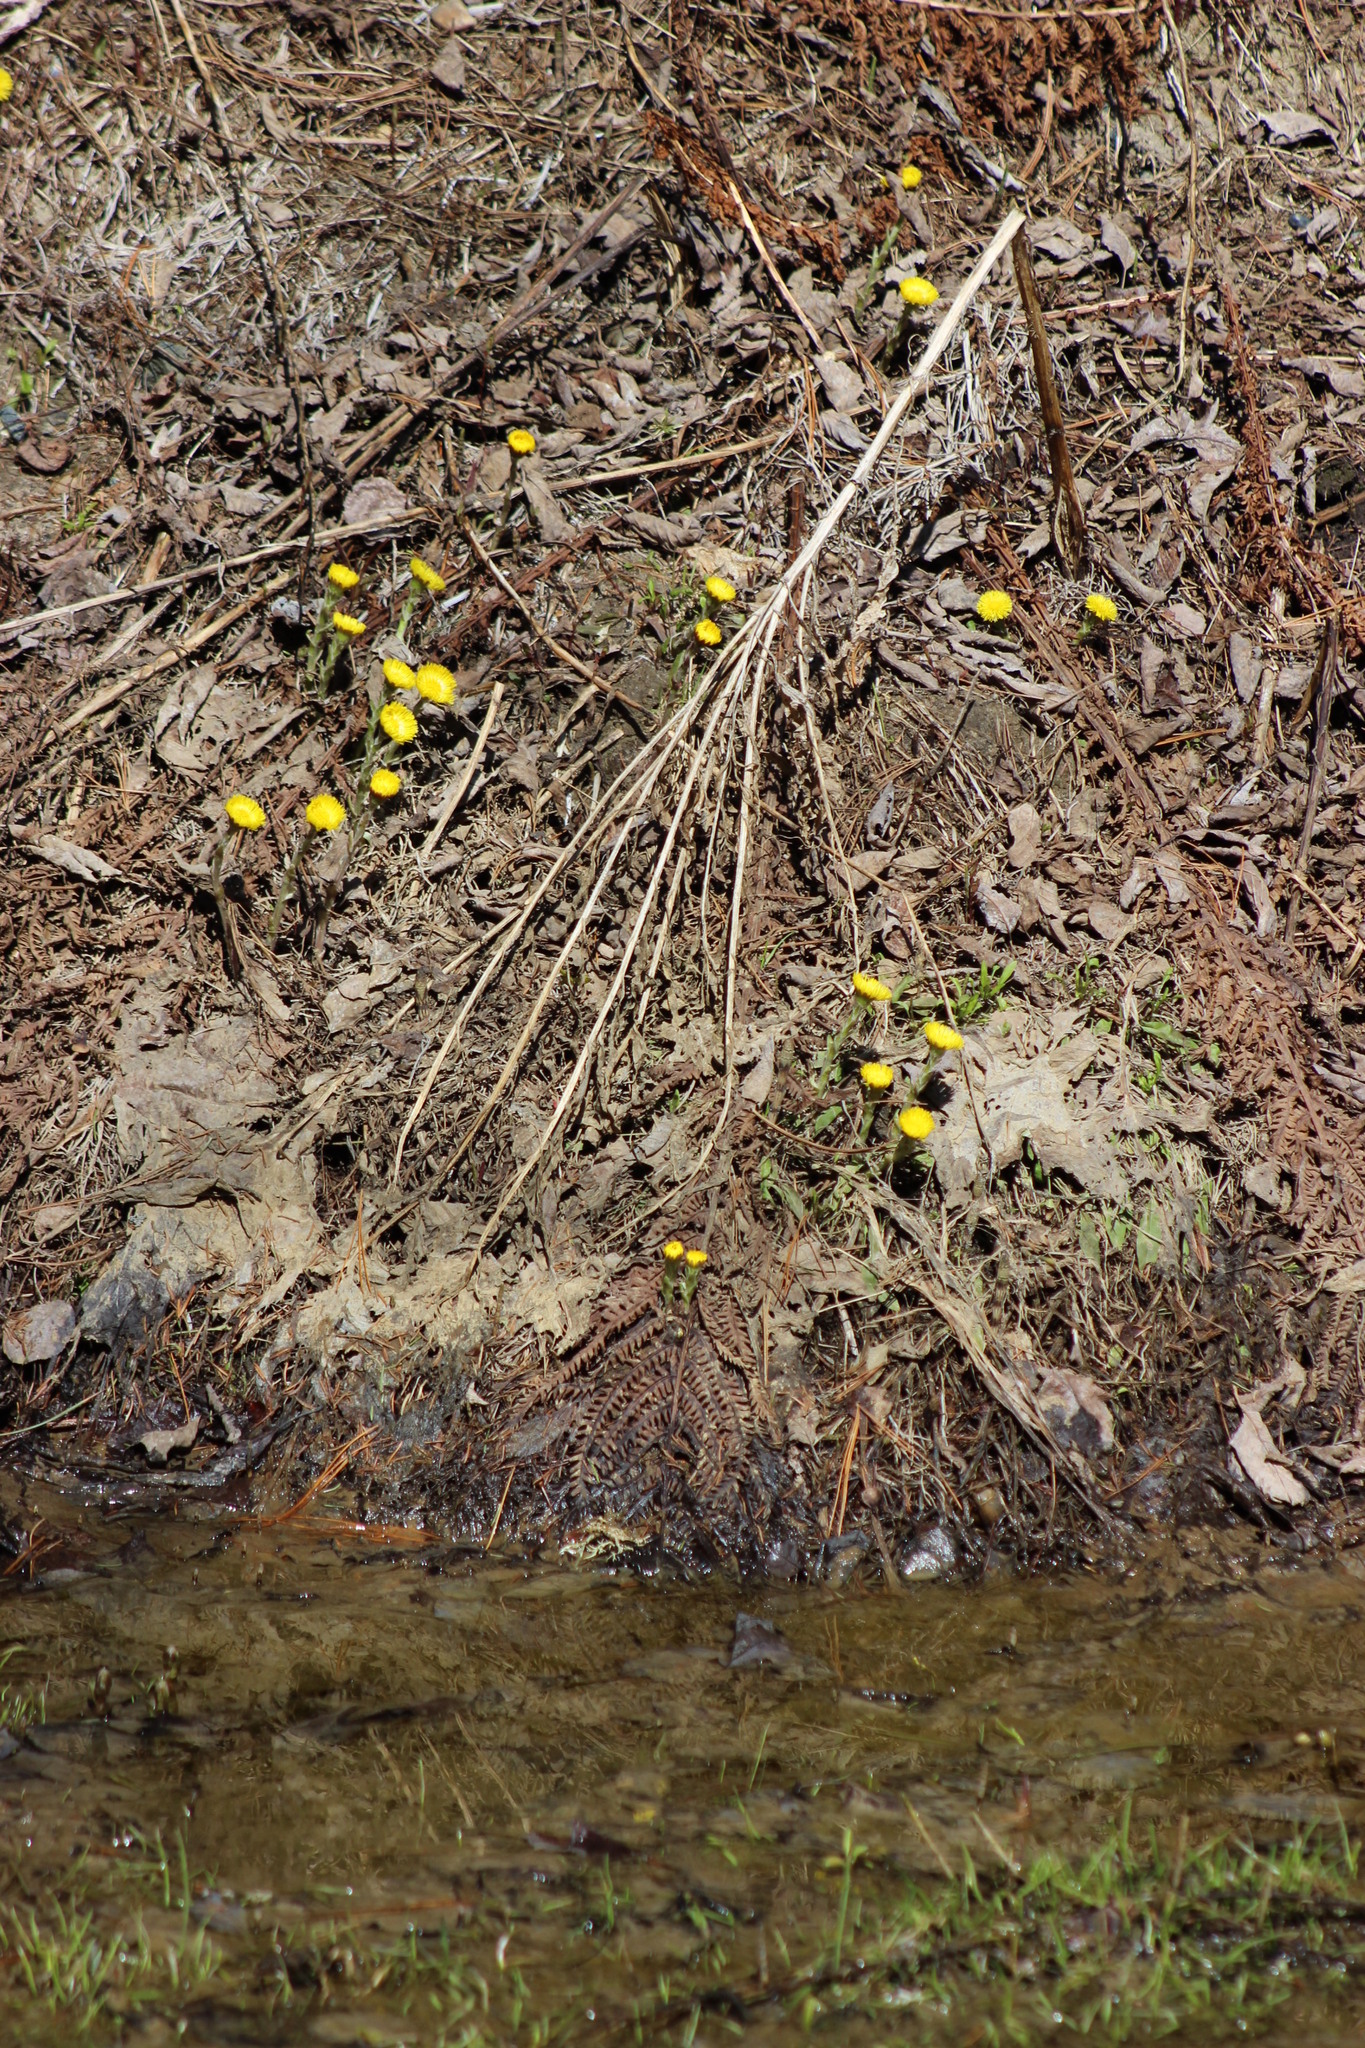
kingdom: Plantae
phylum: Tracheophyta
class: Magnoliopsida
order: Asterales
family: Asteraceae
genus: Tussilago
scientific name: Tussilago farfara
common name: Coltsfoot
